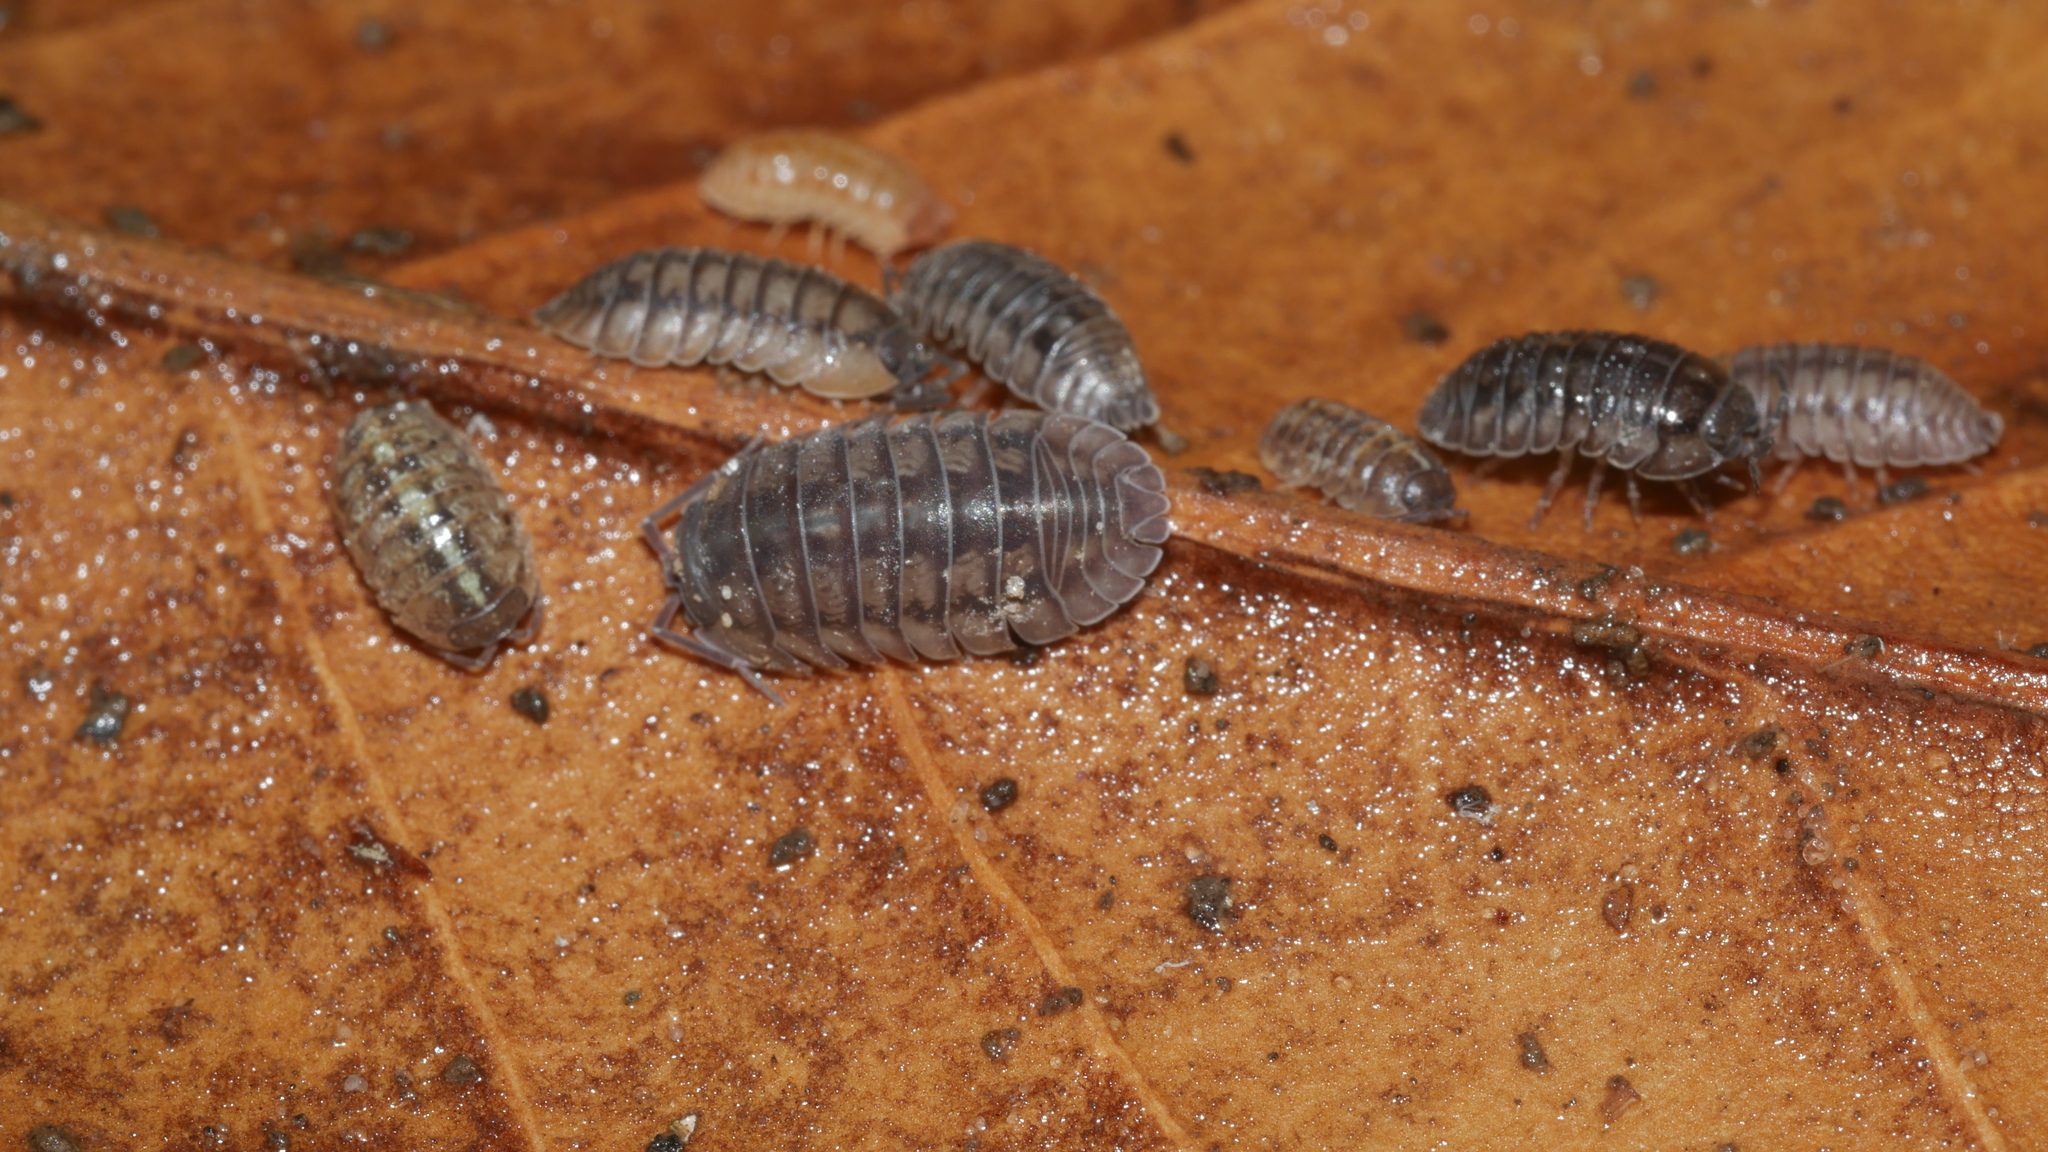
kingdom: Animalia
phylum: Arthropoda
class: Malacostraca
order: Isopoda
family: Armadillidiidae
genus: Armadillidium
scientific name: Armadillidium nasatum
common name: Isopod
